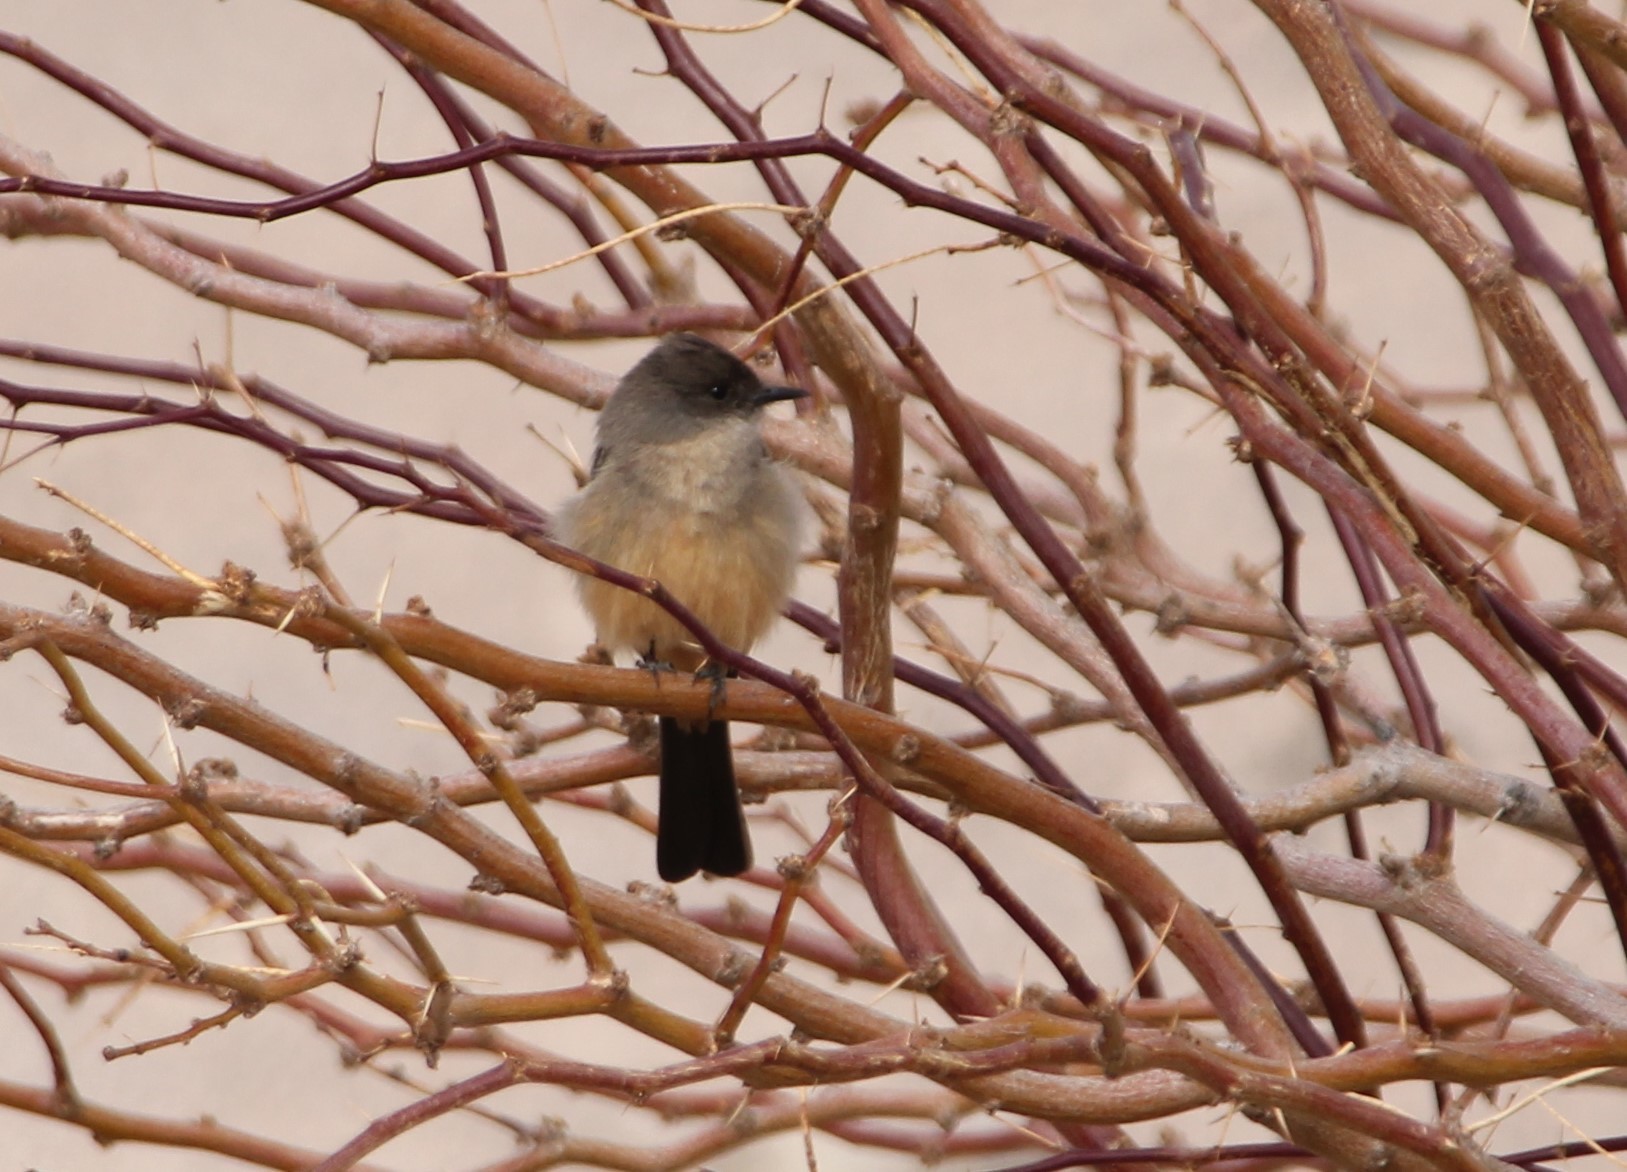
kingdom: Animalia
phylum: Chordata
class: Aves
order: Passeriformes
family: Tyrannidae
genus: Sayornis
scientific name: Sayornis saya
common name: Say's phoebe
